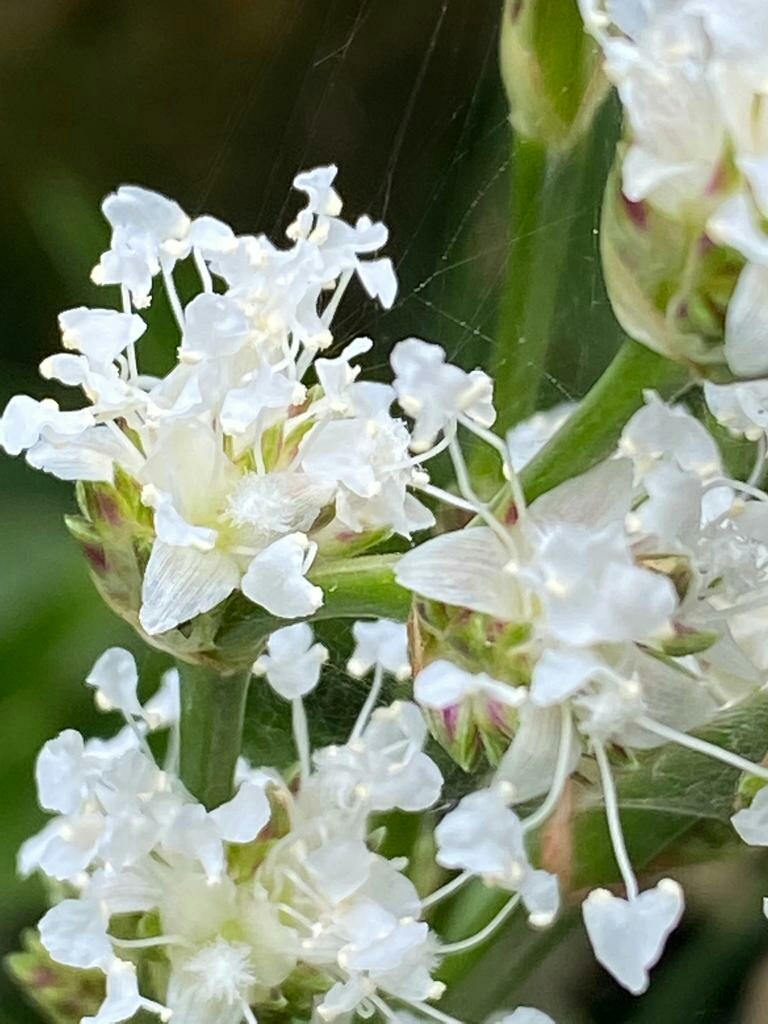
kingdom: Plantae
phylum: Tracheophyta
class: Liliopsida
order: Commelinales
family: Commelinaceae
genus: Callisia
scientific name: Callisia fragrans
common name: Basketplant
